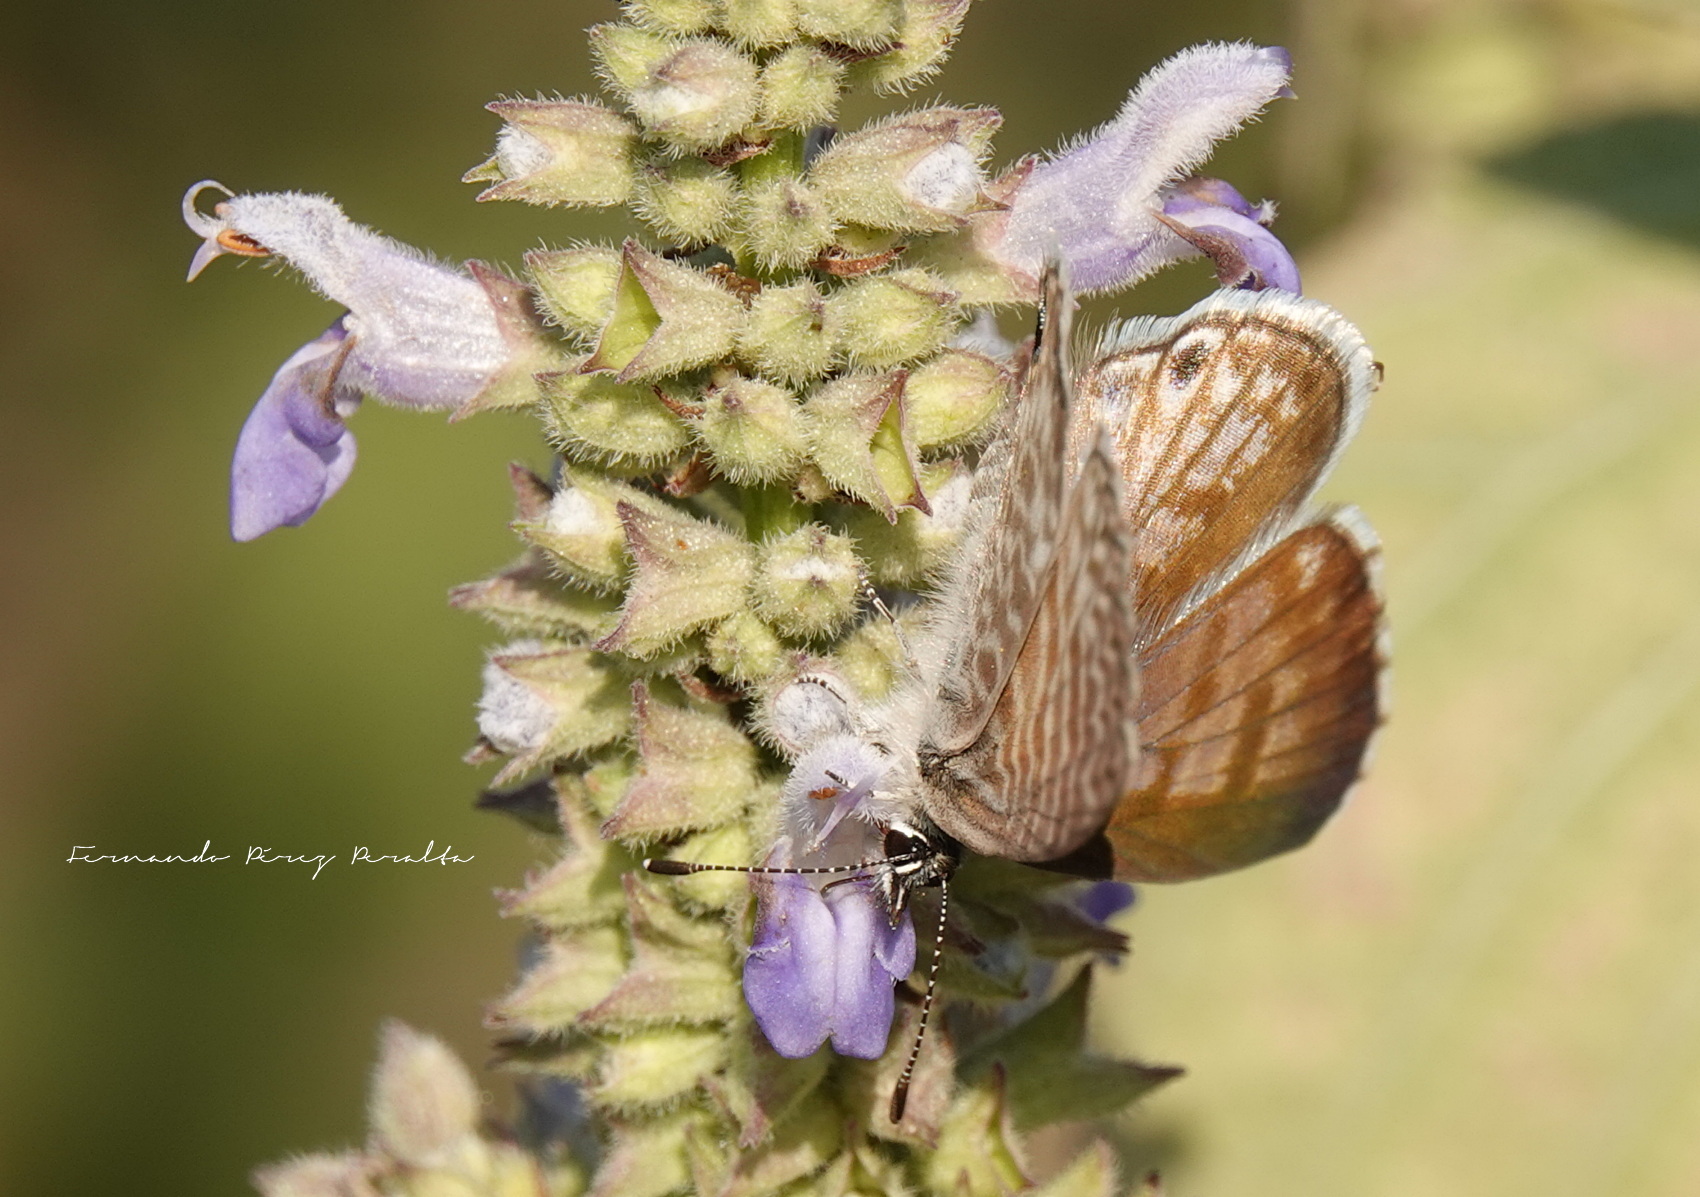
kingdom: Animalia
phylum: Arthropoda
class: Insecta
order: Lepidoptera
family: Lycaenidae
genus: Leptotes
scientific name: Leptotes marina
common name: Marine blue
